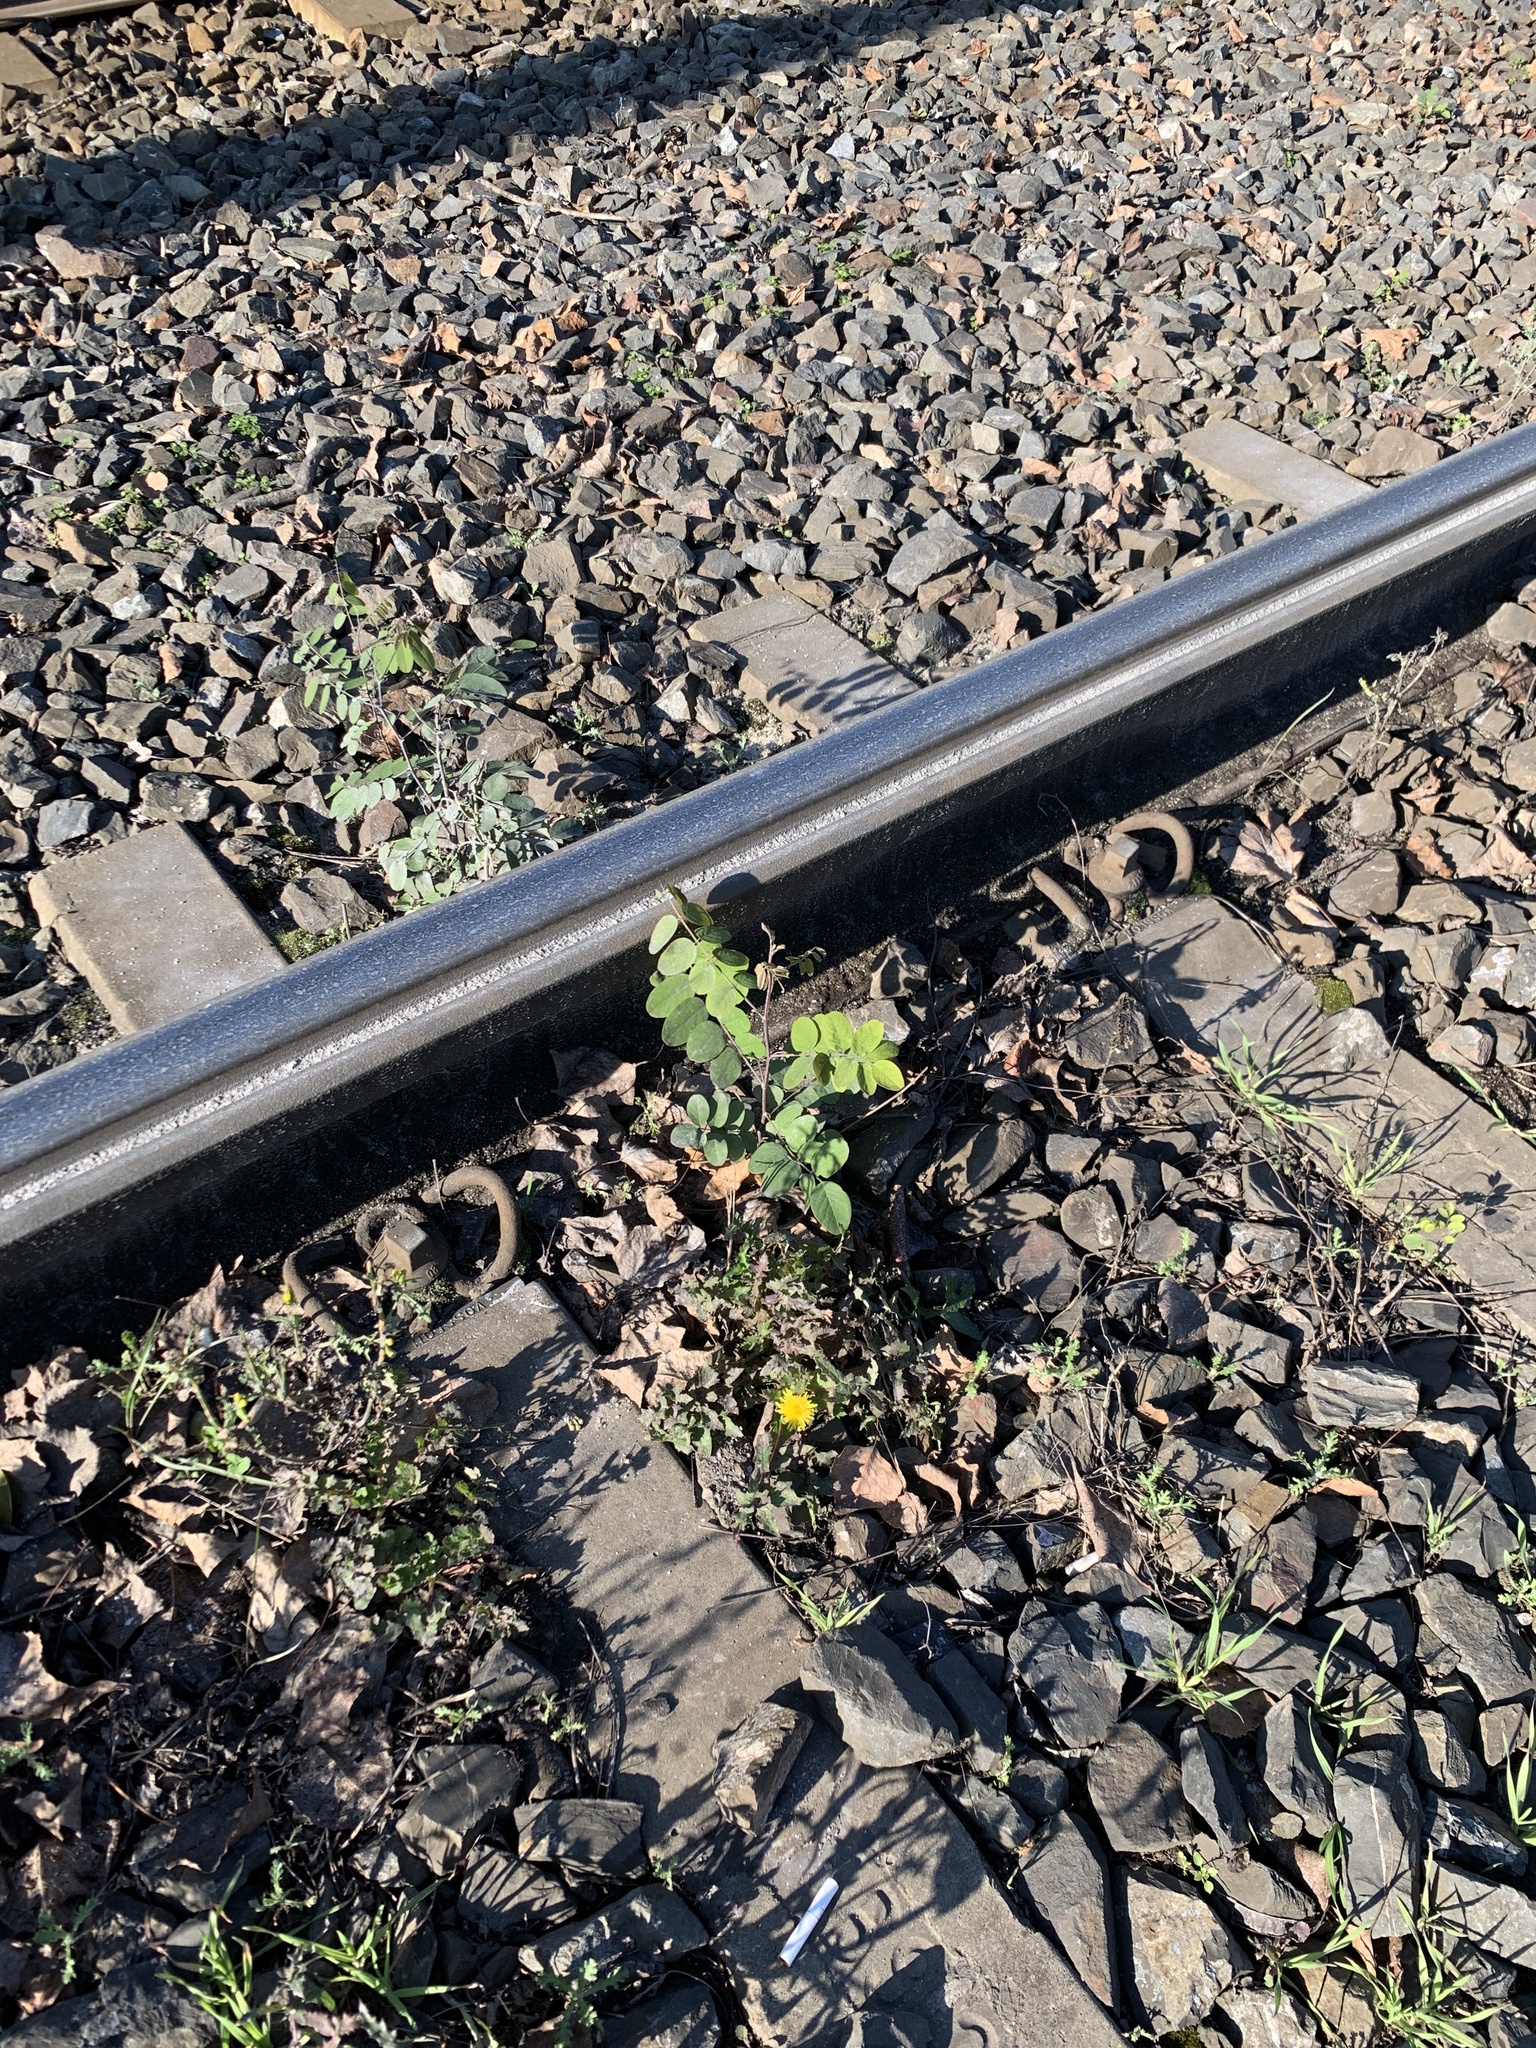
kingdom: Plantae
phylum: Tracheophyta
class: Magnoliopsida
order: Fabales
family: Fabaceae
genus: Robinia
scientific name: Robinia pseudoacacia
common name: Black locust
